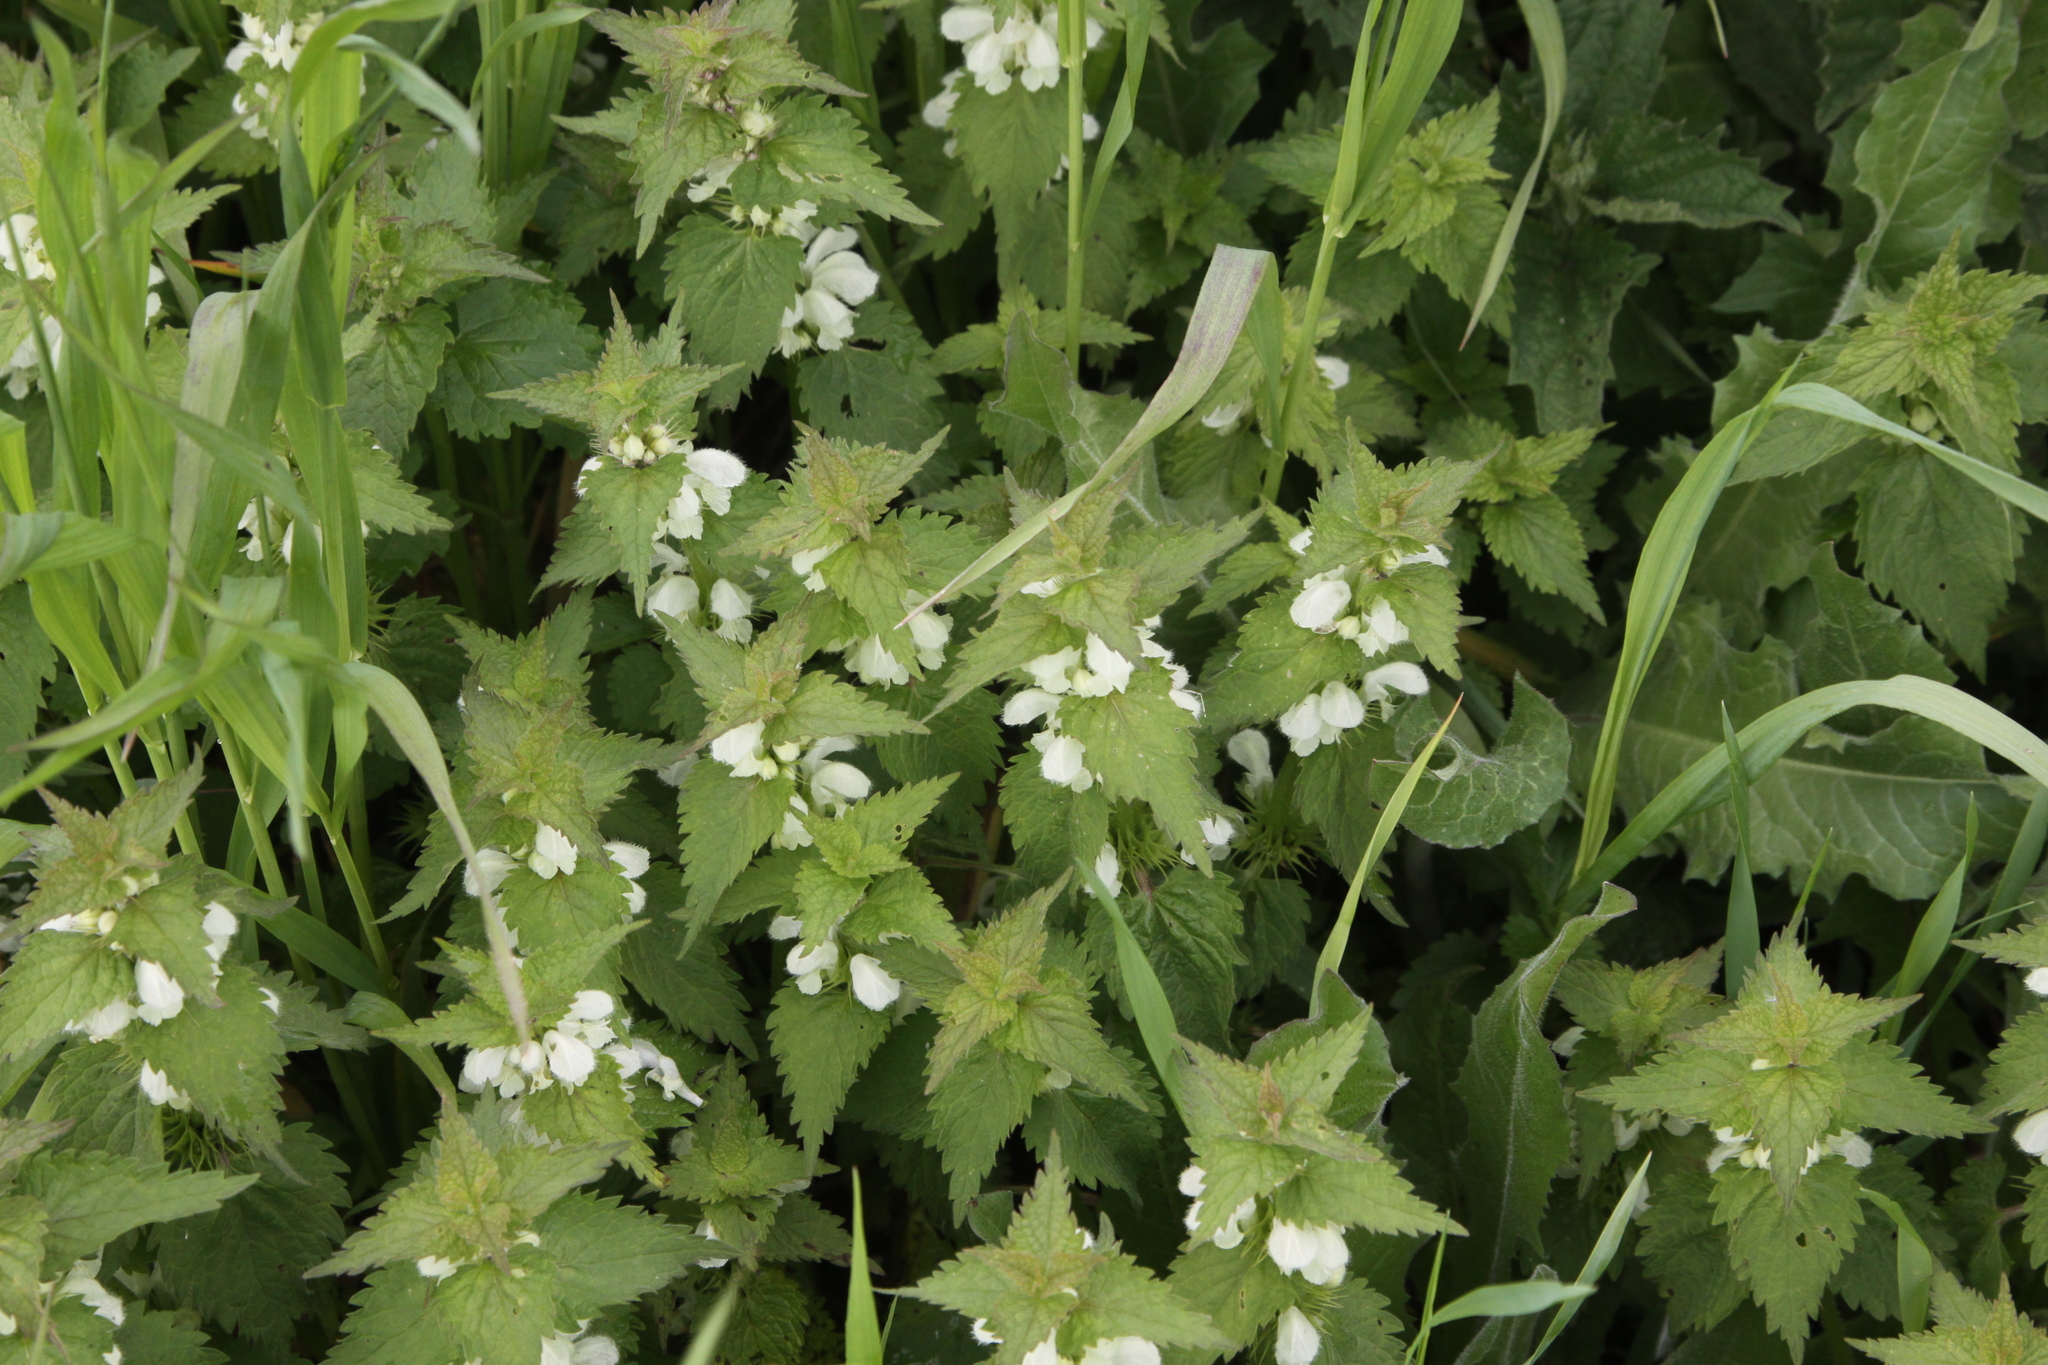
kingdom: Plantae
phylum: Tracheophyta
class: Magnoliopsida
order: Lamiales
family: Lamiaceae
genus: Lamium
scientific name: Lamium album
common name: White dead-nettle
